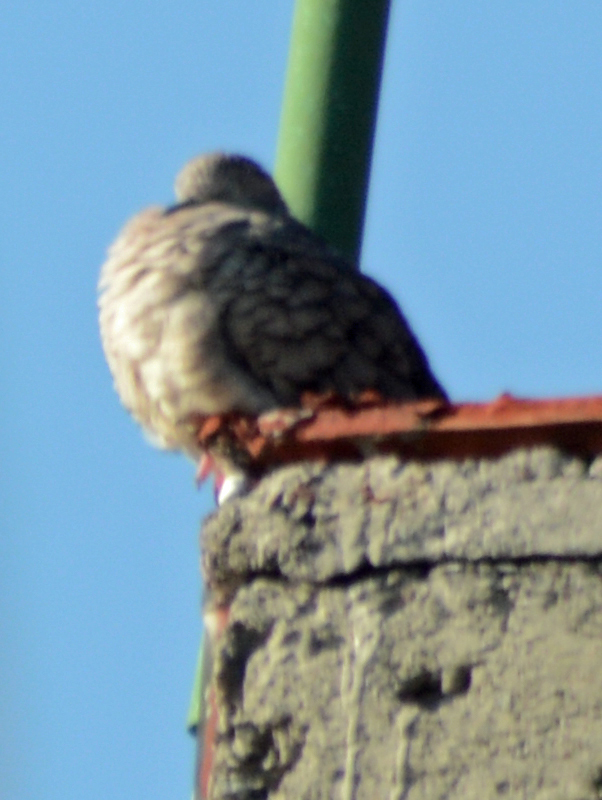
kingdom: Animalia
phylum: Chordata
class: Aves
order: Columbiformes
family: Columbidae
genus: Columbina
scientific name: Columbina inca
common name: Inca dove
